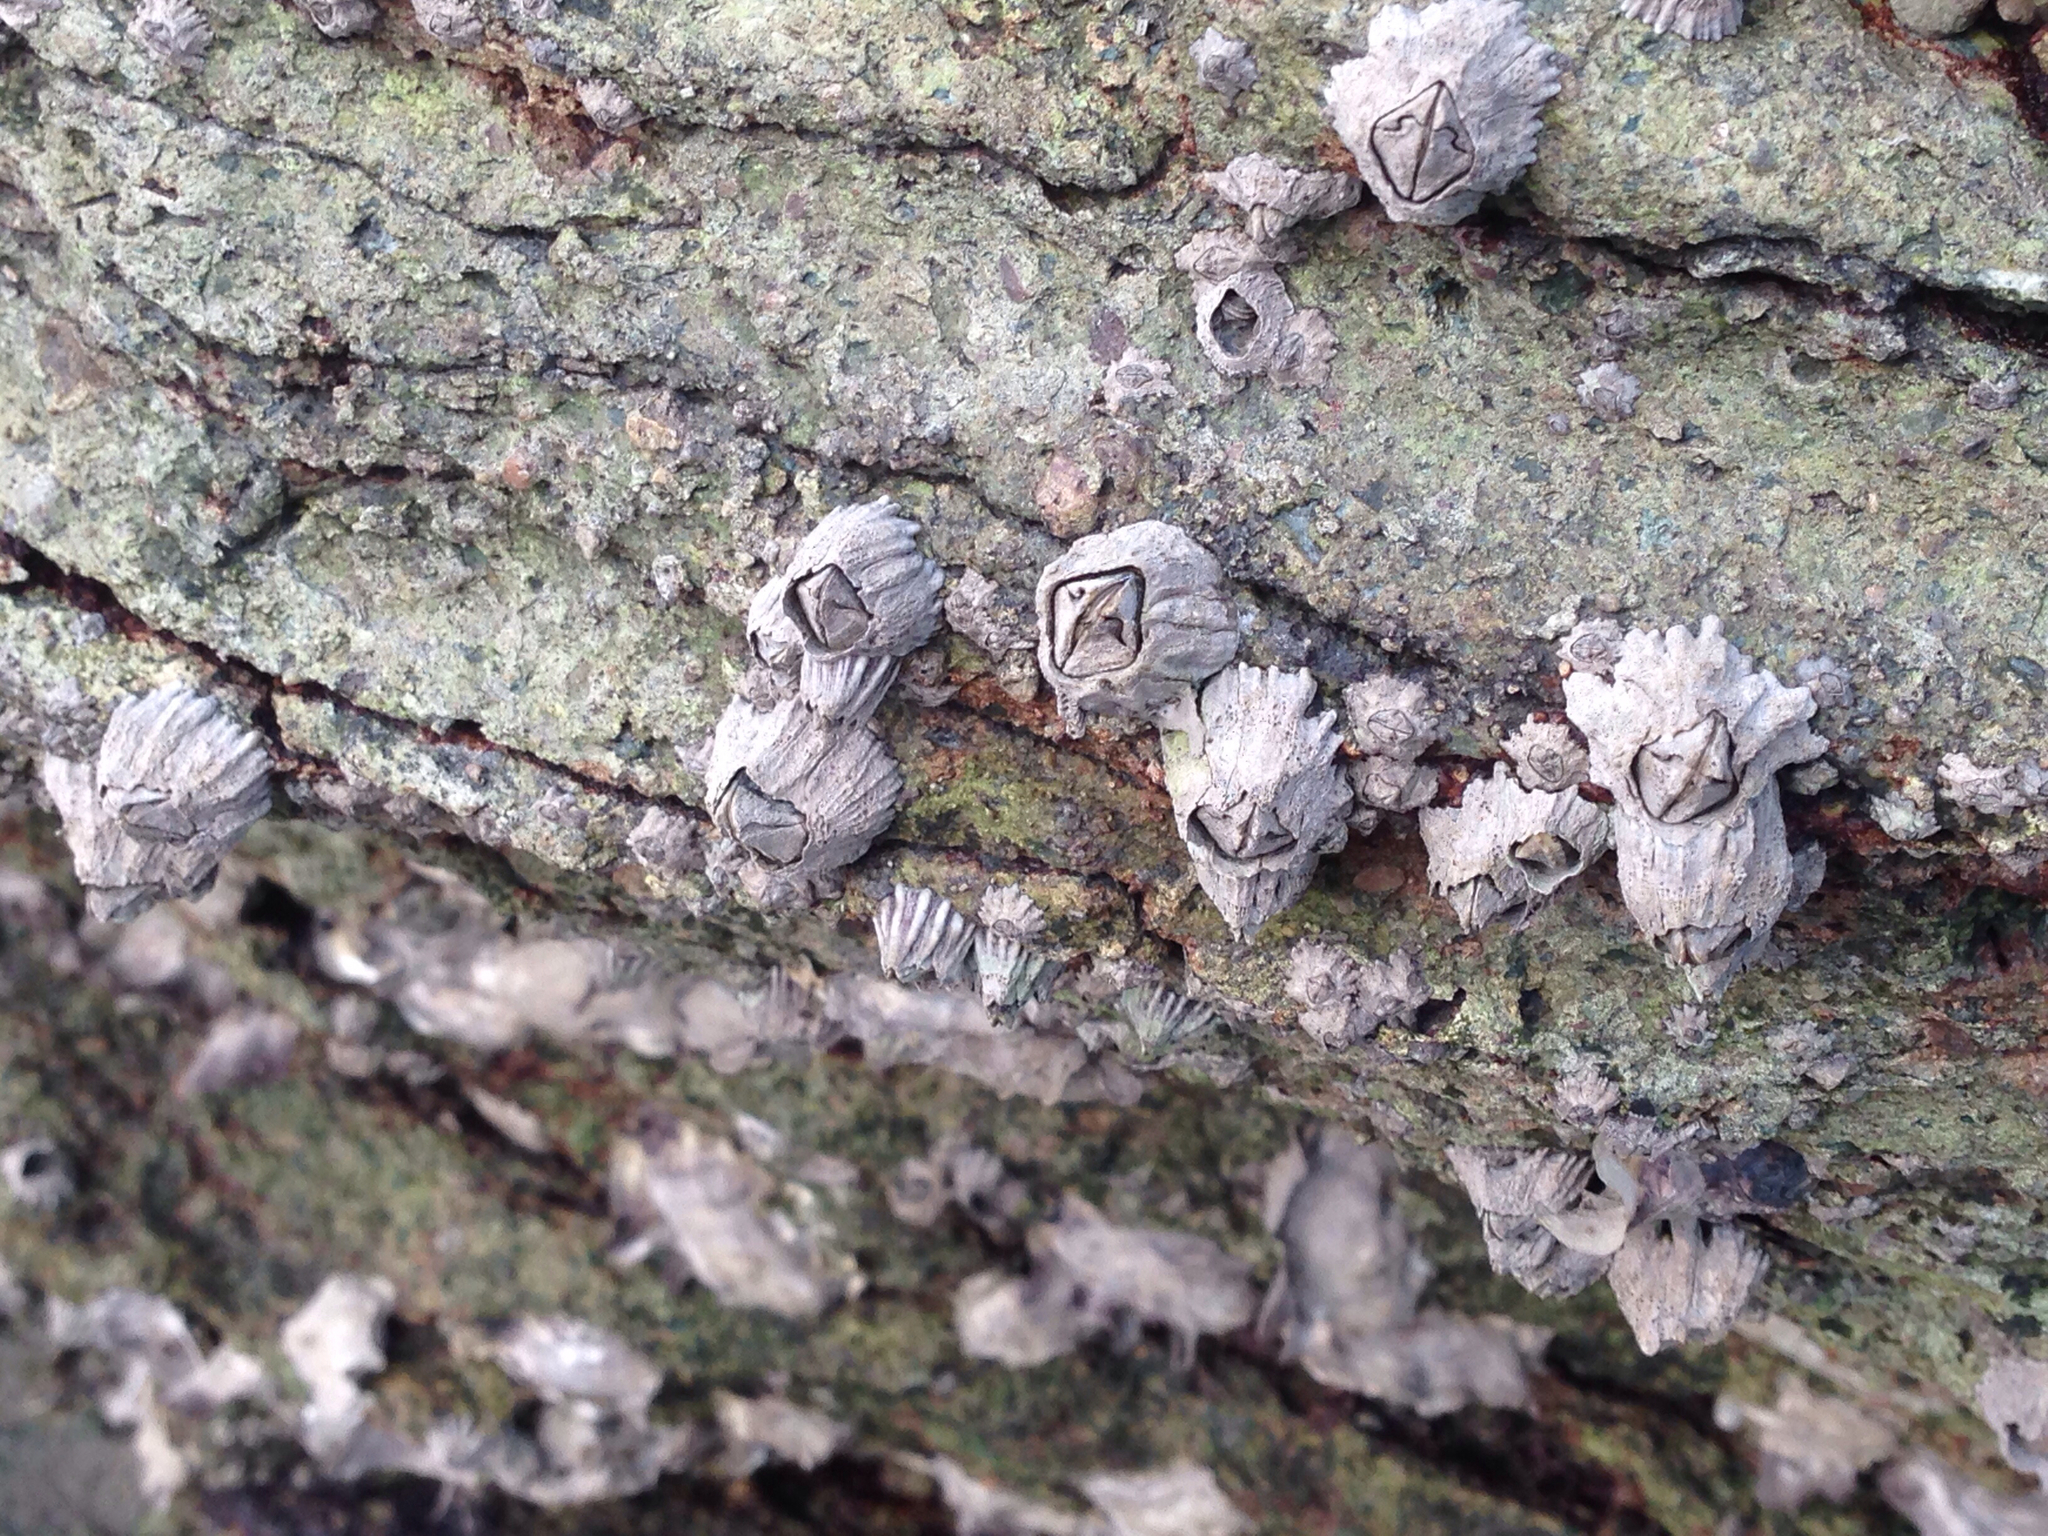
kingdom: Animalia
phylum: Arthropoda
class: Maxillopoda
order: Sessilia
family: Balanidae
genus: Fistulobalanus
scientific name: Fistulobalanus albicostatus
